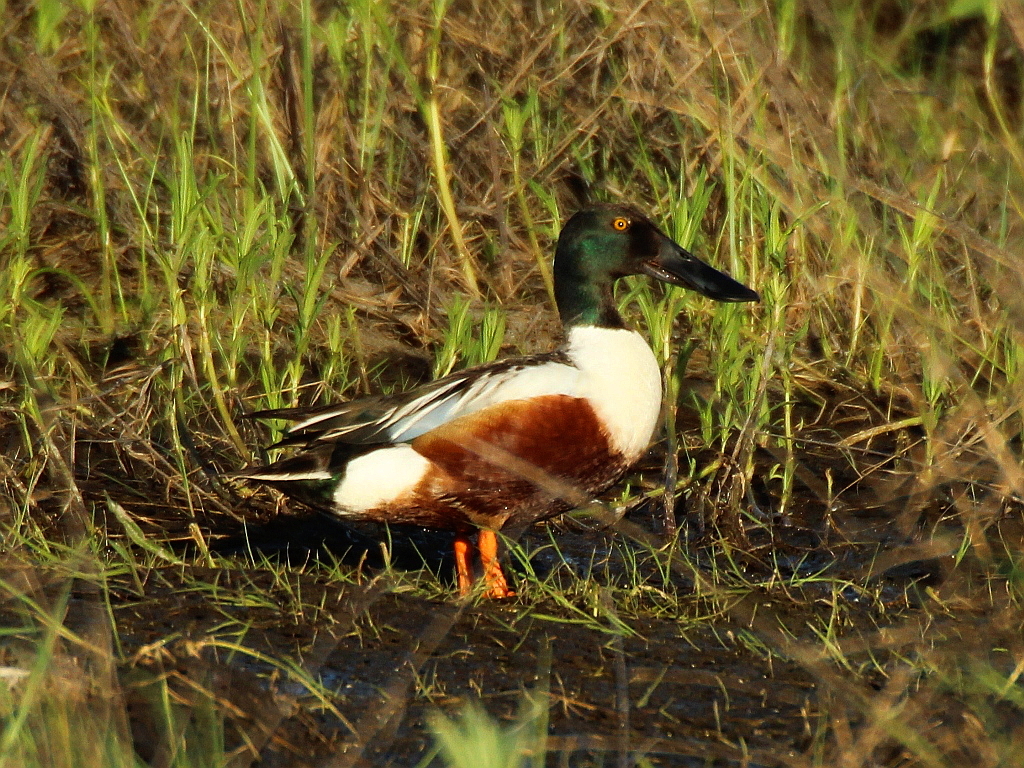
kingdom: Animalia
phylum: Chordata
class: Aves
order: Anseriformes
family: Anatidae
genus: Spatula
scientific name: Spatula clypeata
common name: Northern shoveler
